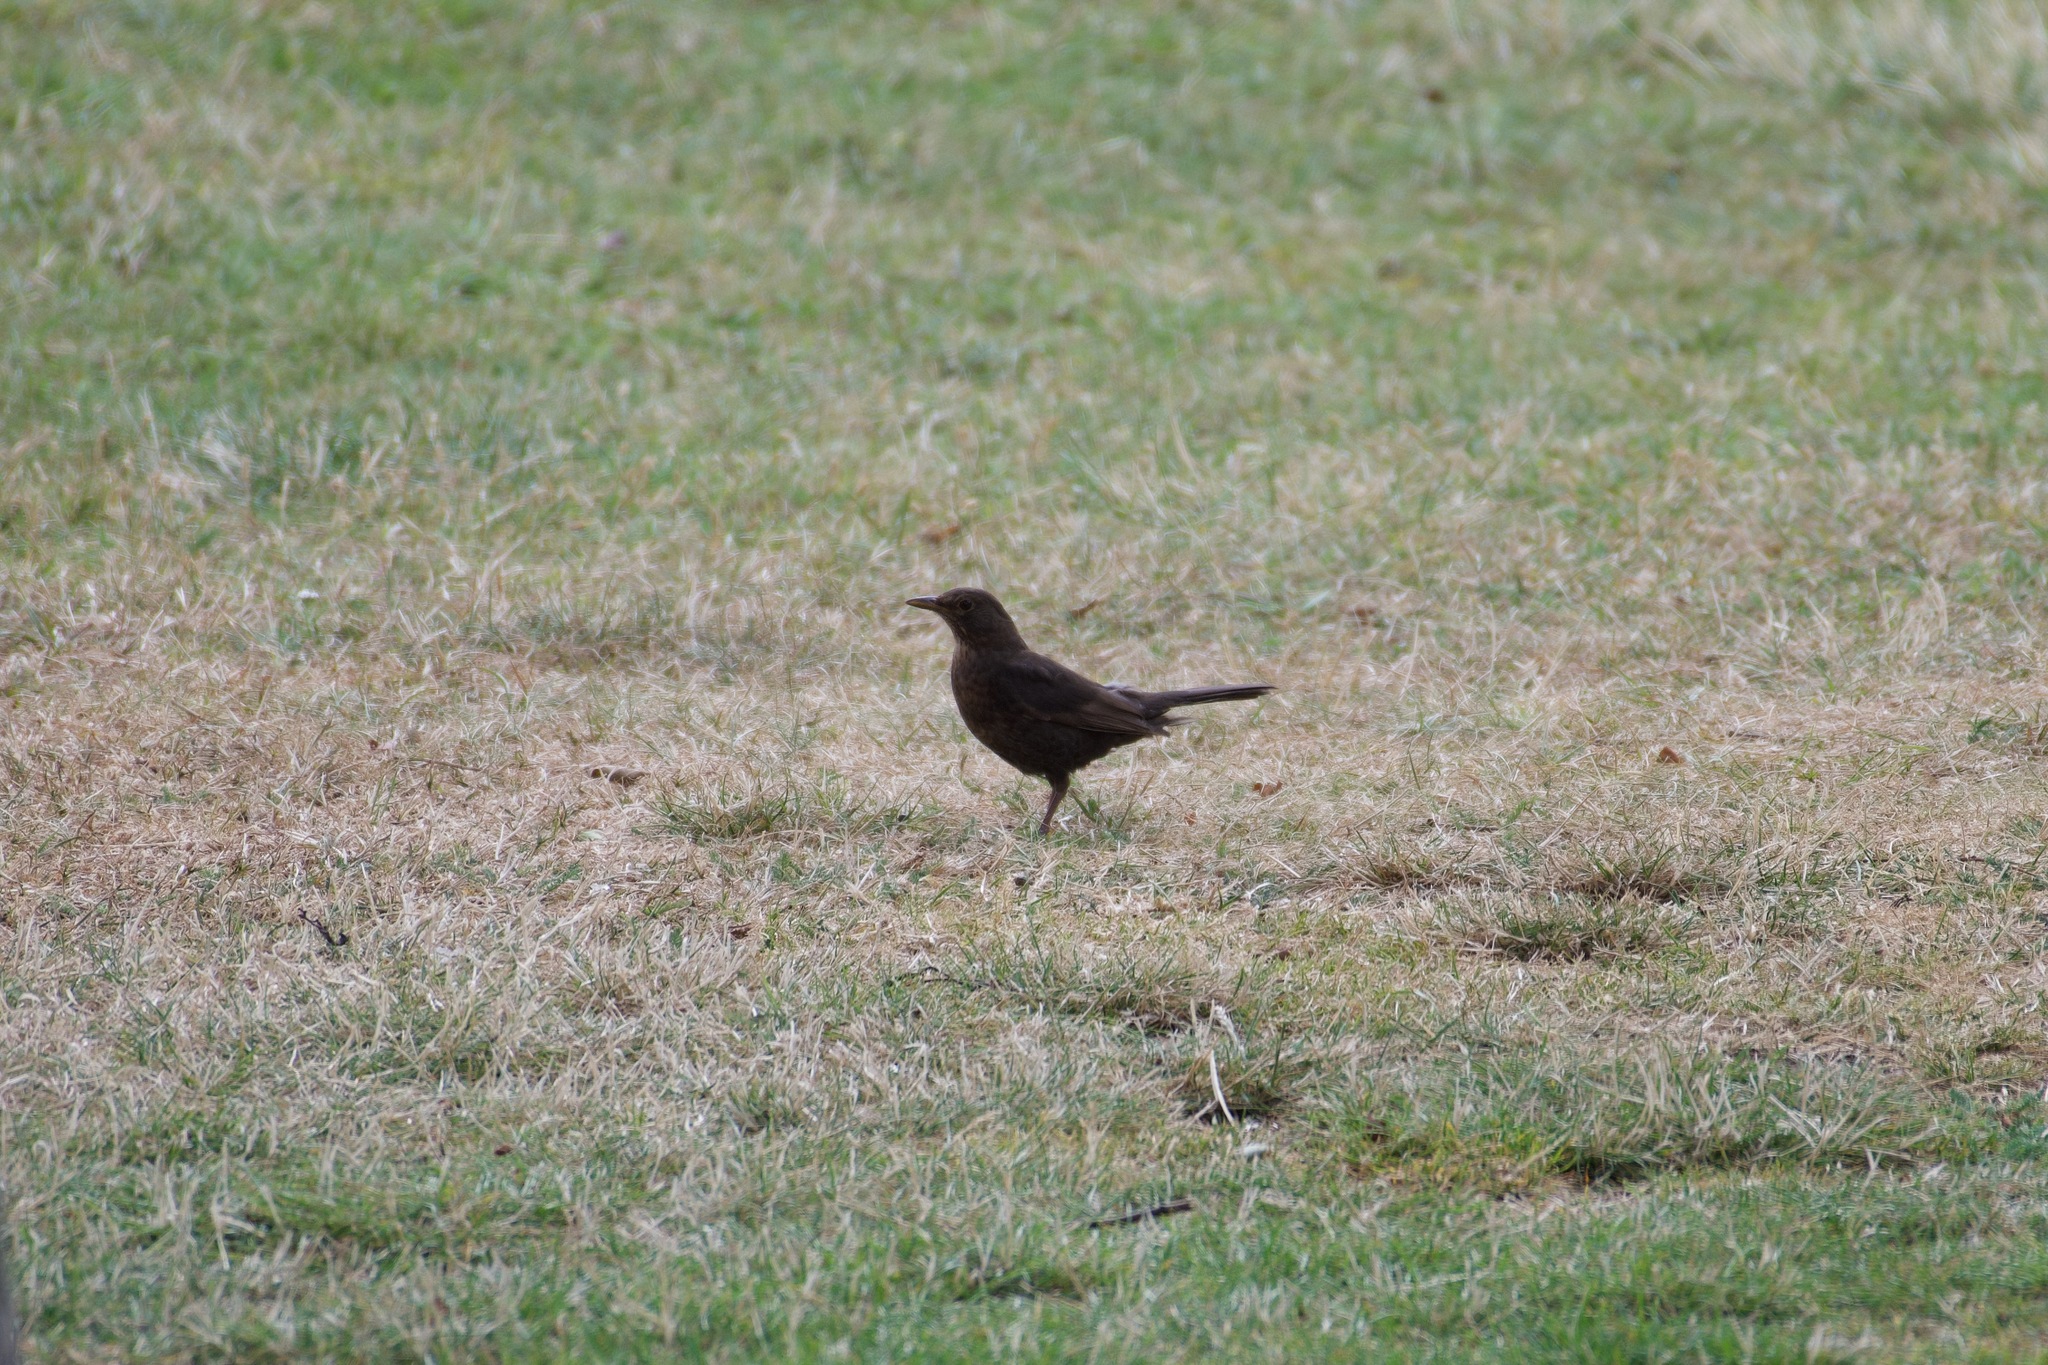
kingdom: Animalia
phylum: Chordata
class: Aves
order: Passeriformes
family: Turdidae
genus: Turdus
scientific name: Turdus merula
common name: Common blackbird
